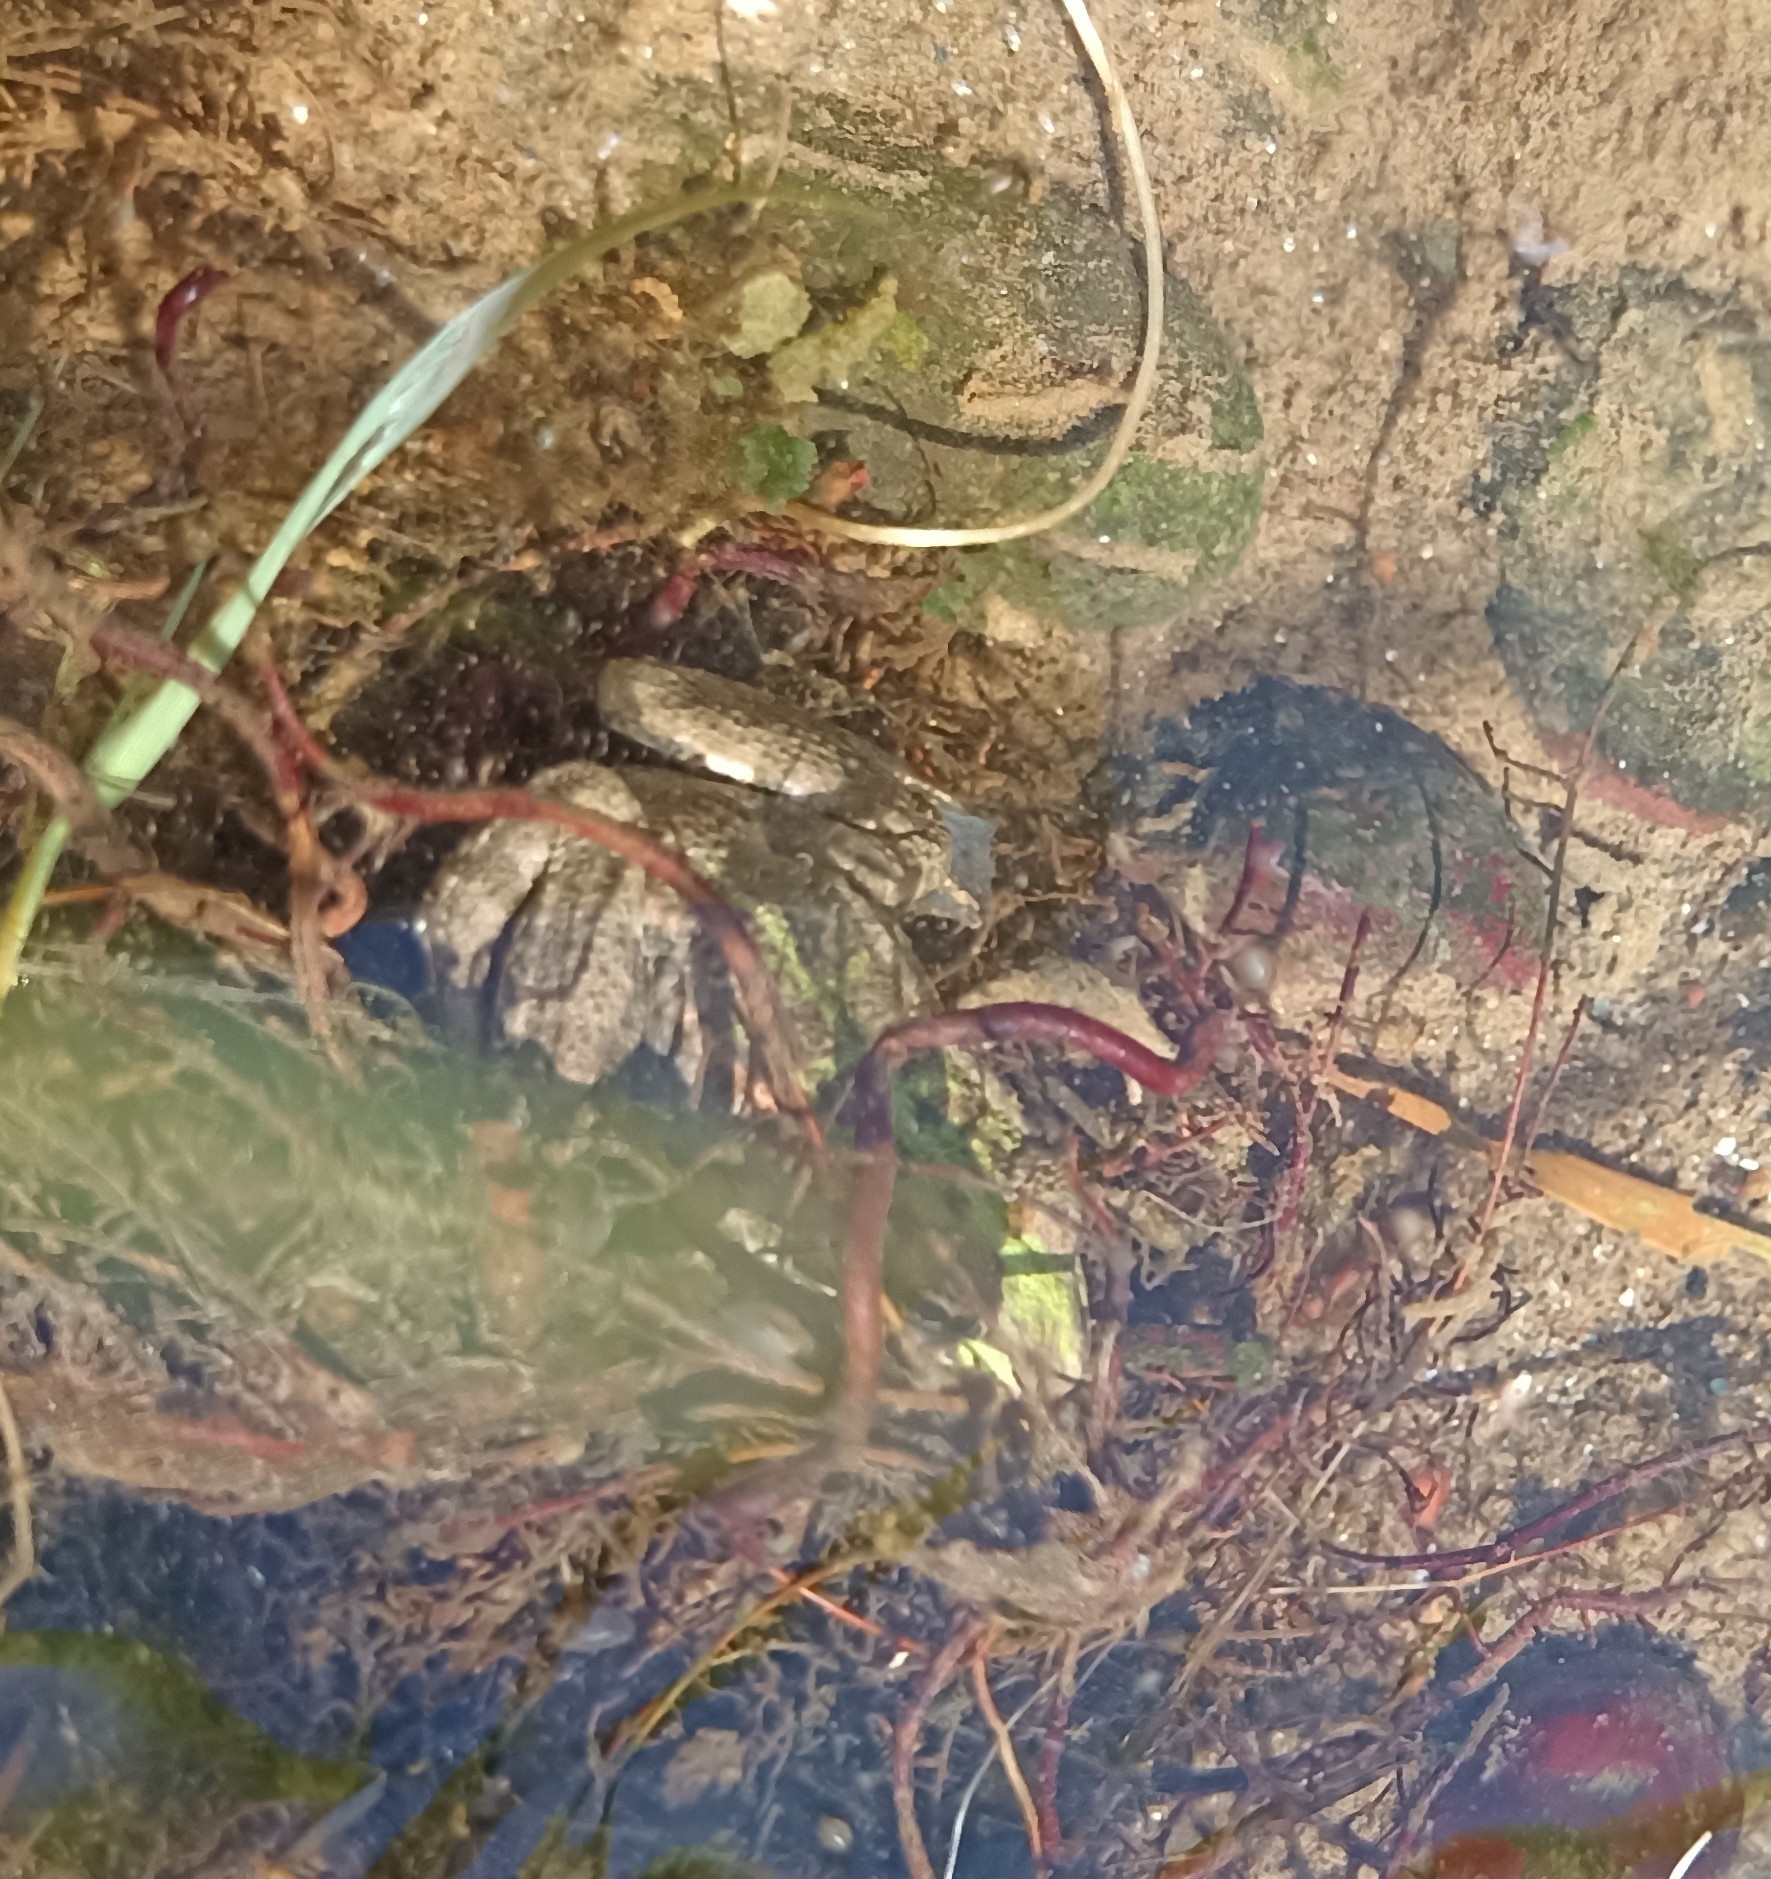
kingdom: Animalia
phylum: Chordata
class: Amphibia
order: Anura
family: Ranidae
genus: Pelophylax
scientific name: Pelophylax
